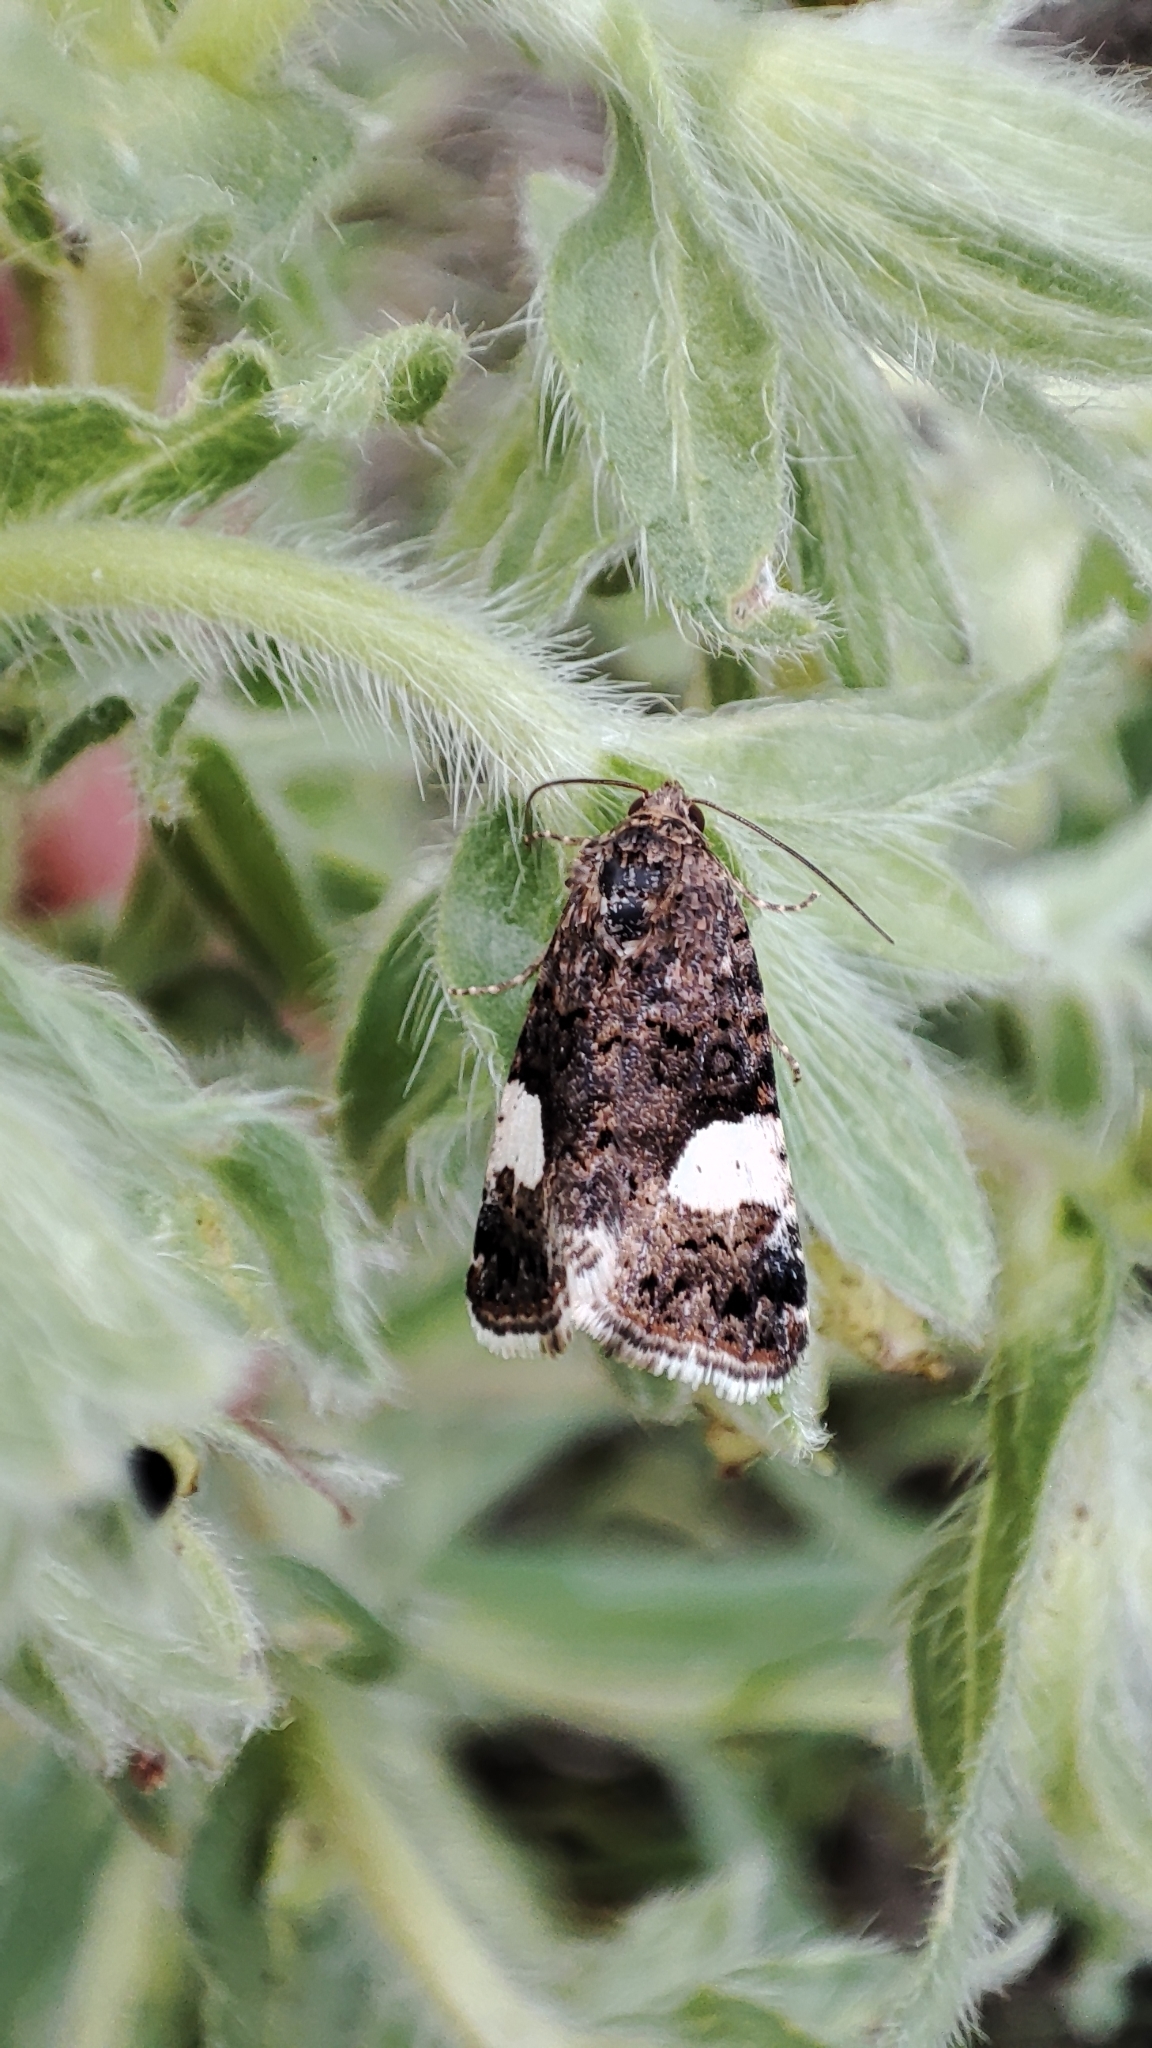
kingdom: Animalia
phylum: Arthropoda
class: Insecta
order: Lepidoptera
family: Erebidae
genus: Tyta
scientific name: Tyta luctuosa
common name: Four-spotted
